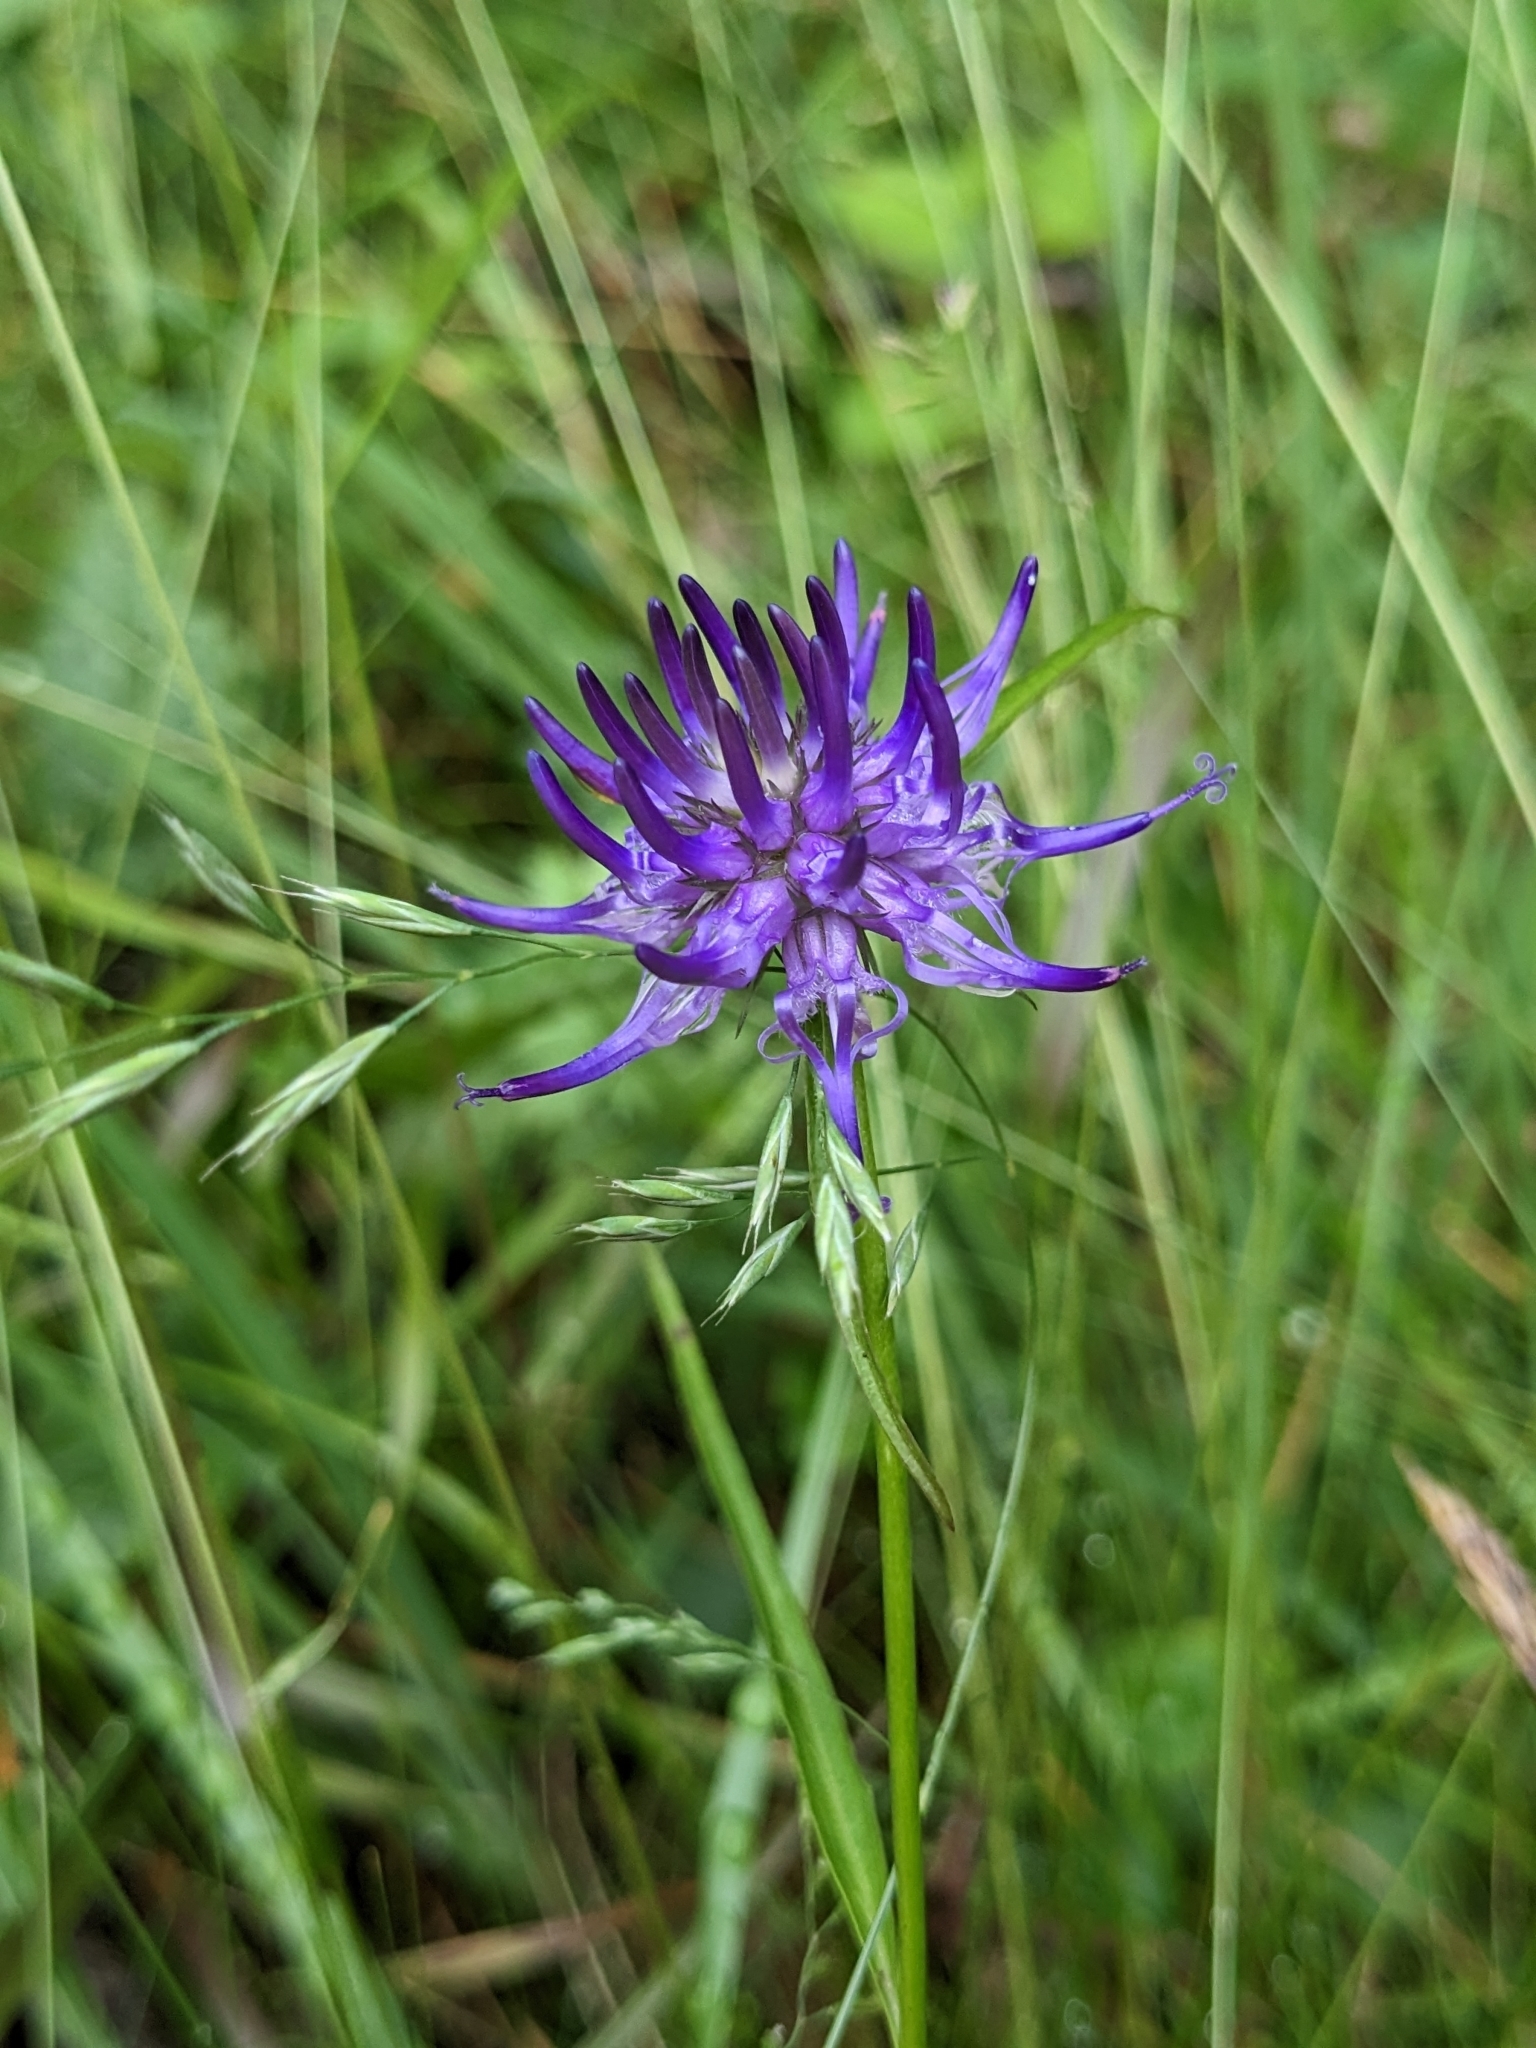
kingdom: Plantae
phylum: Tracheophyta
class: Magnoliopsida
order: Asterales
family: Campanulaceae
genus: Phyteuma
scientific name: Phyteuma scheuchzeri
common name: Oxford rampion
